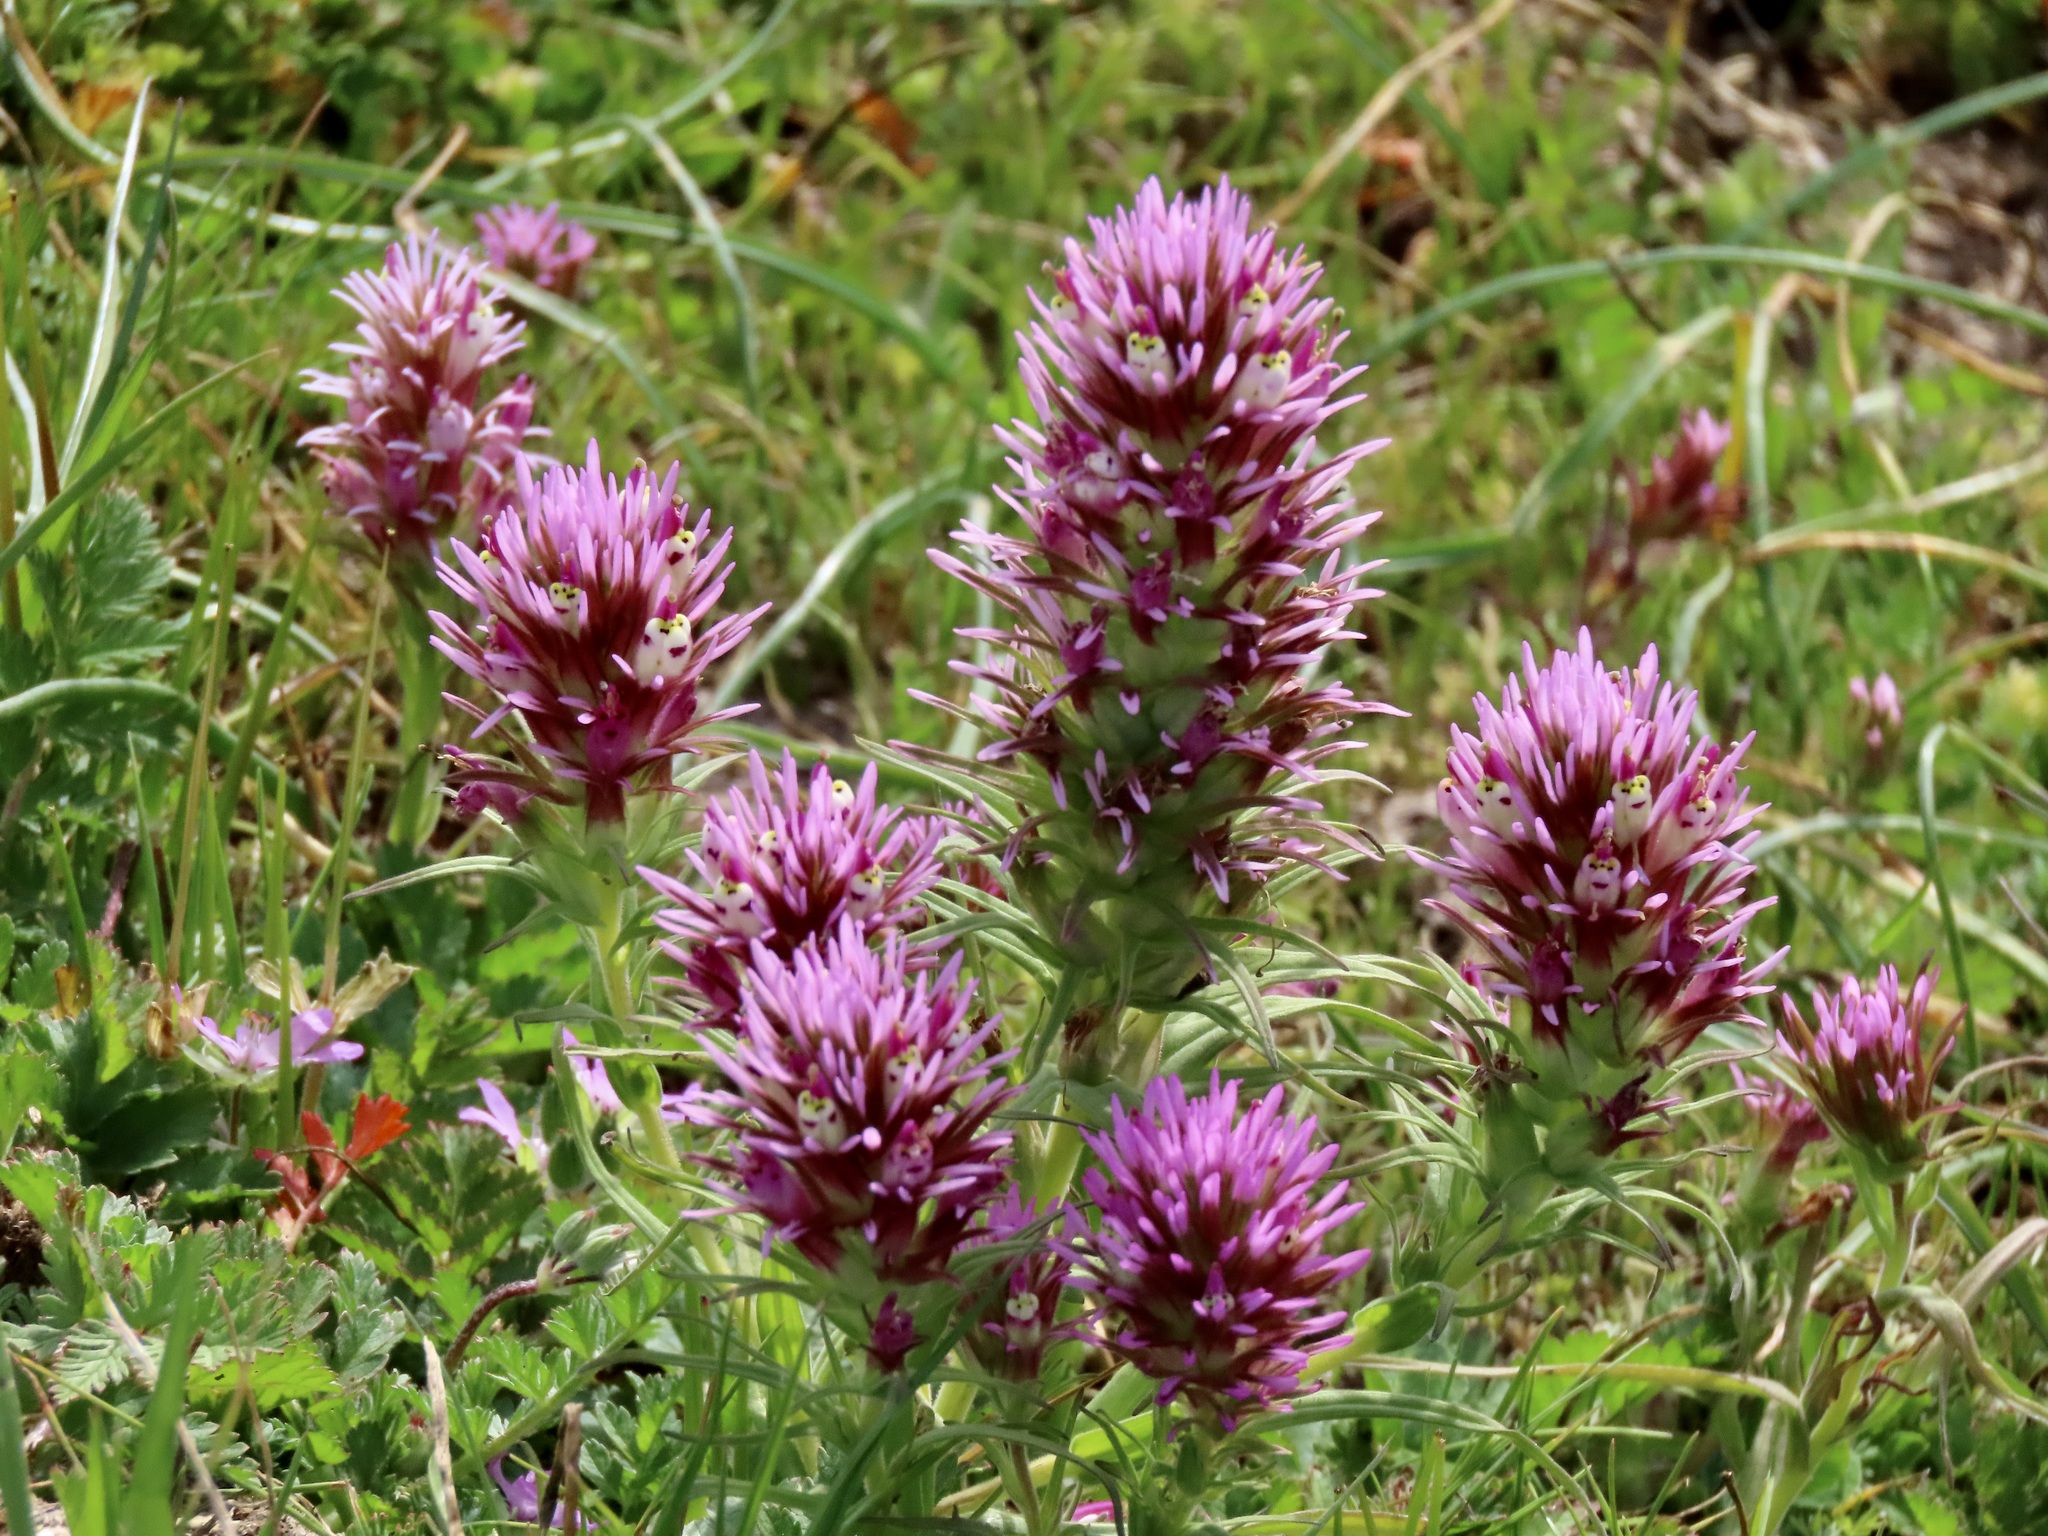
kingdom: Plantae
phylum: Tracheophyta
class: Magnoliopsida
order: Lamiales
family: Orobanchaceae
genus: Castilleja
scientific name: Castilleja exserta
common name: Purple owl-clover
